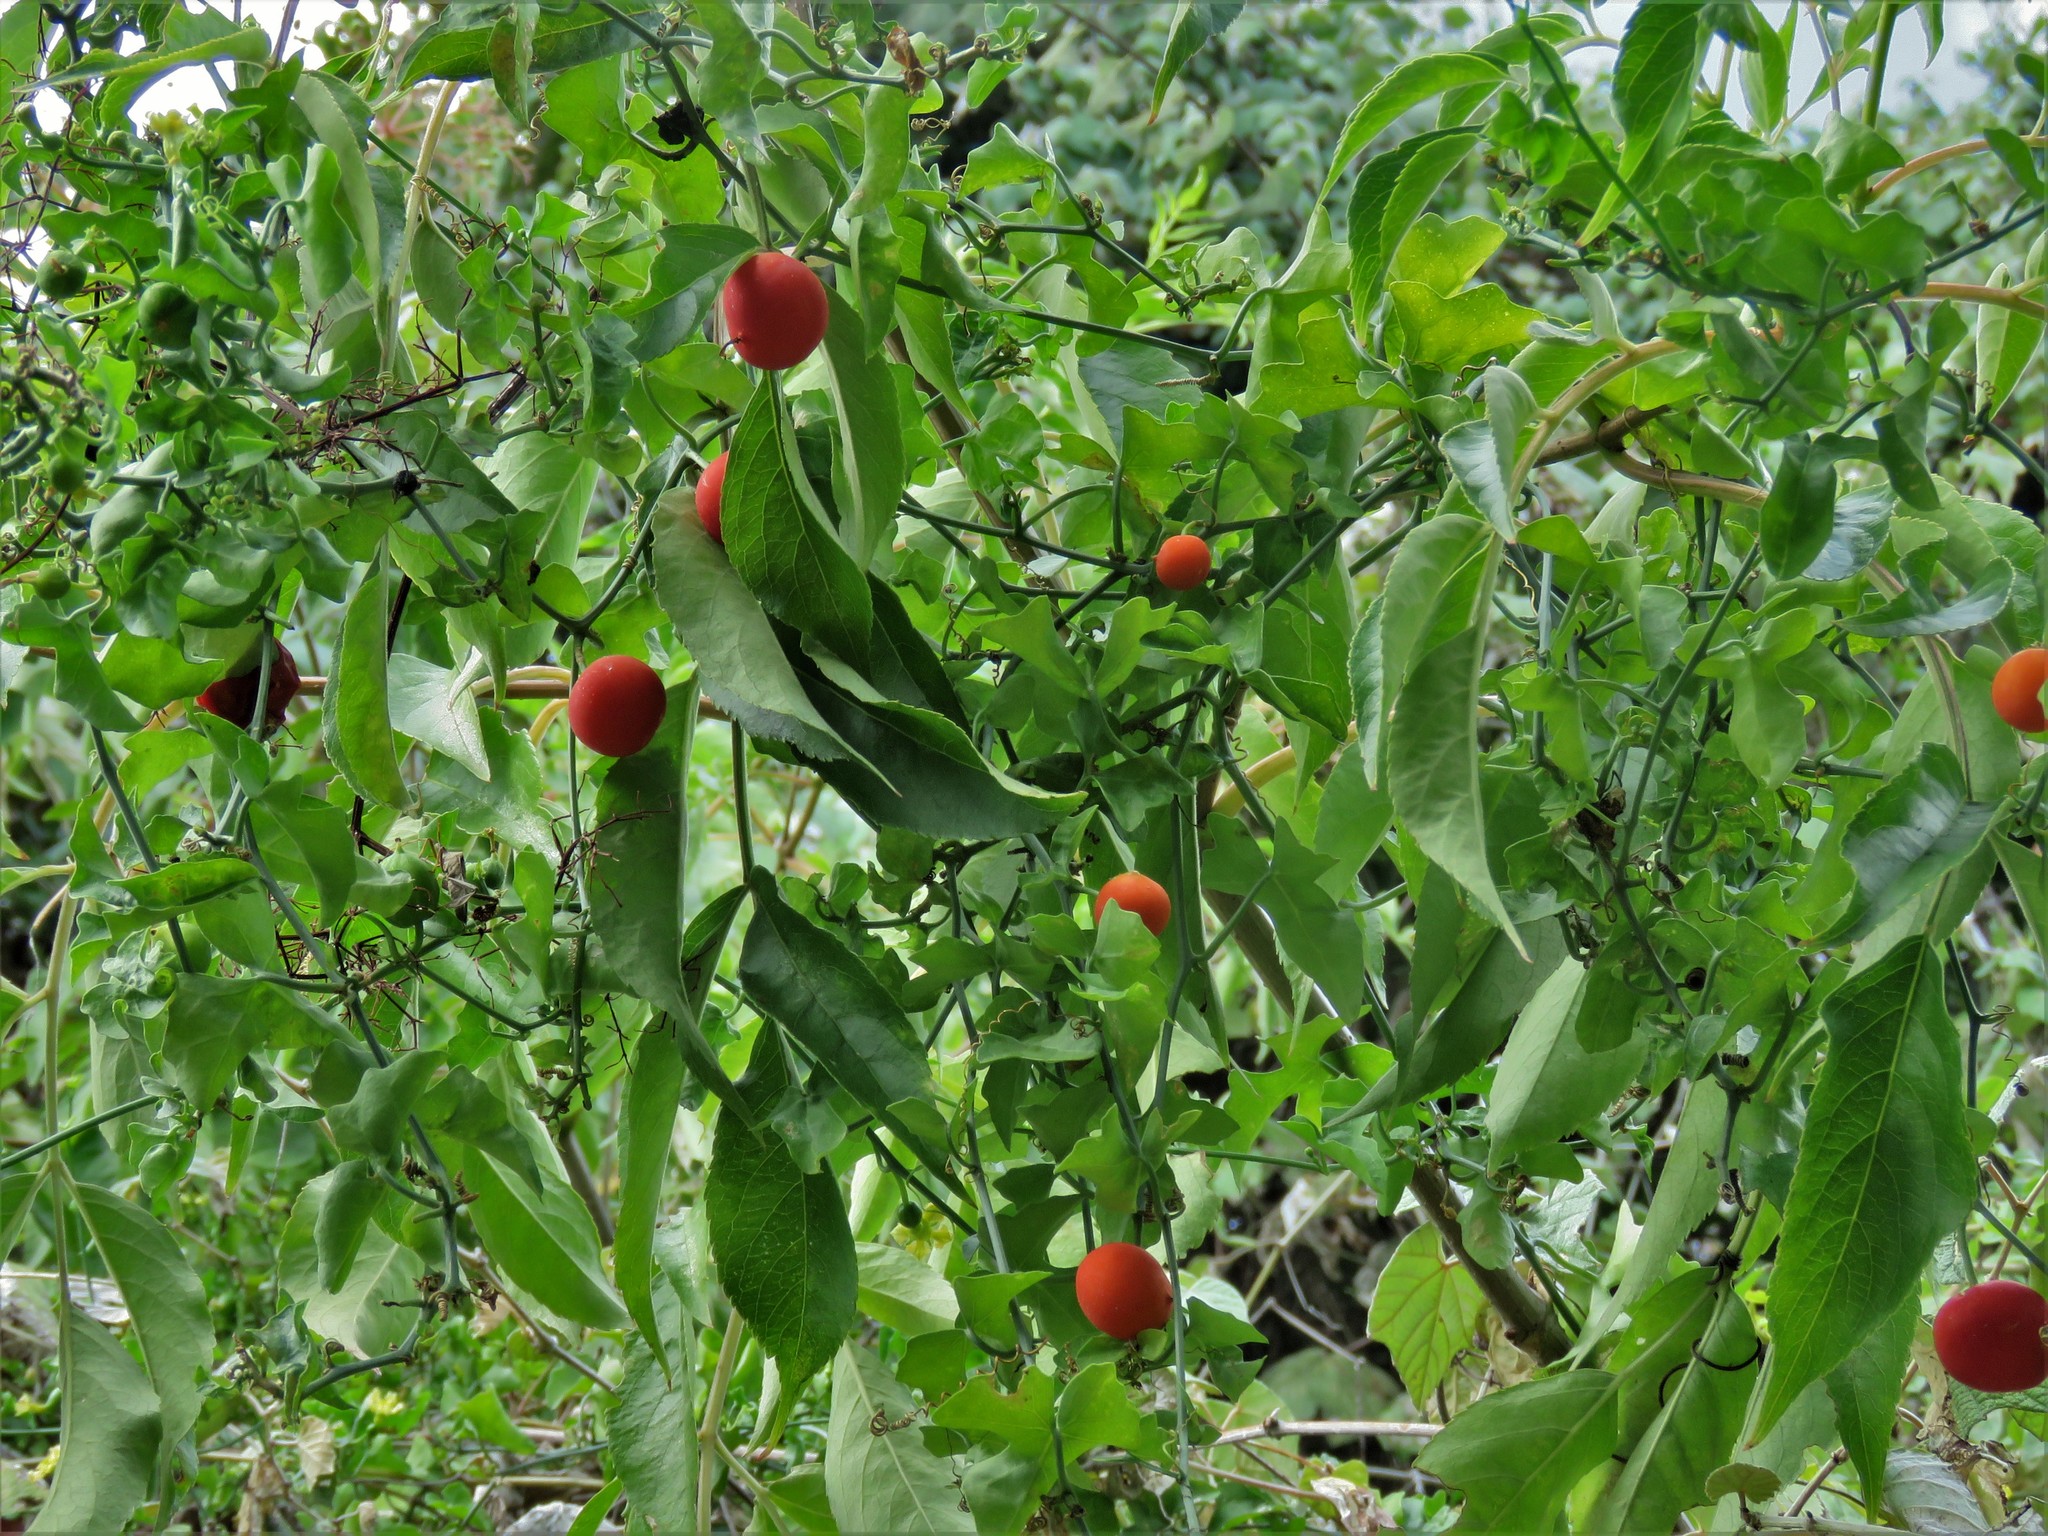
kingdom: Plantae
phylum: Tracheophyta
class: Magnoliopsida
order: Cucurbitales
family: Cucurbitaceae
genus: Ibervillea
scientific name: Ibervillea lindheimeri
